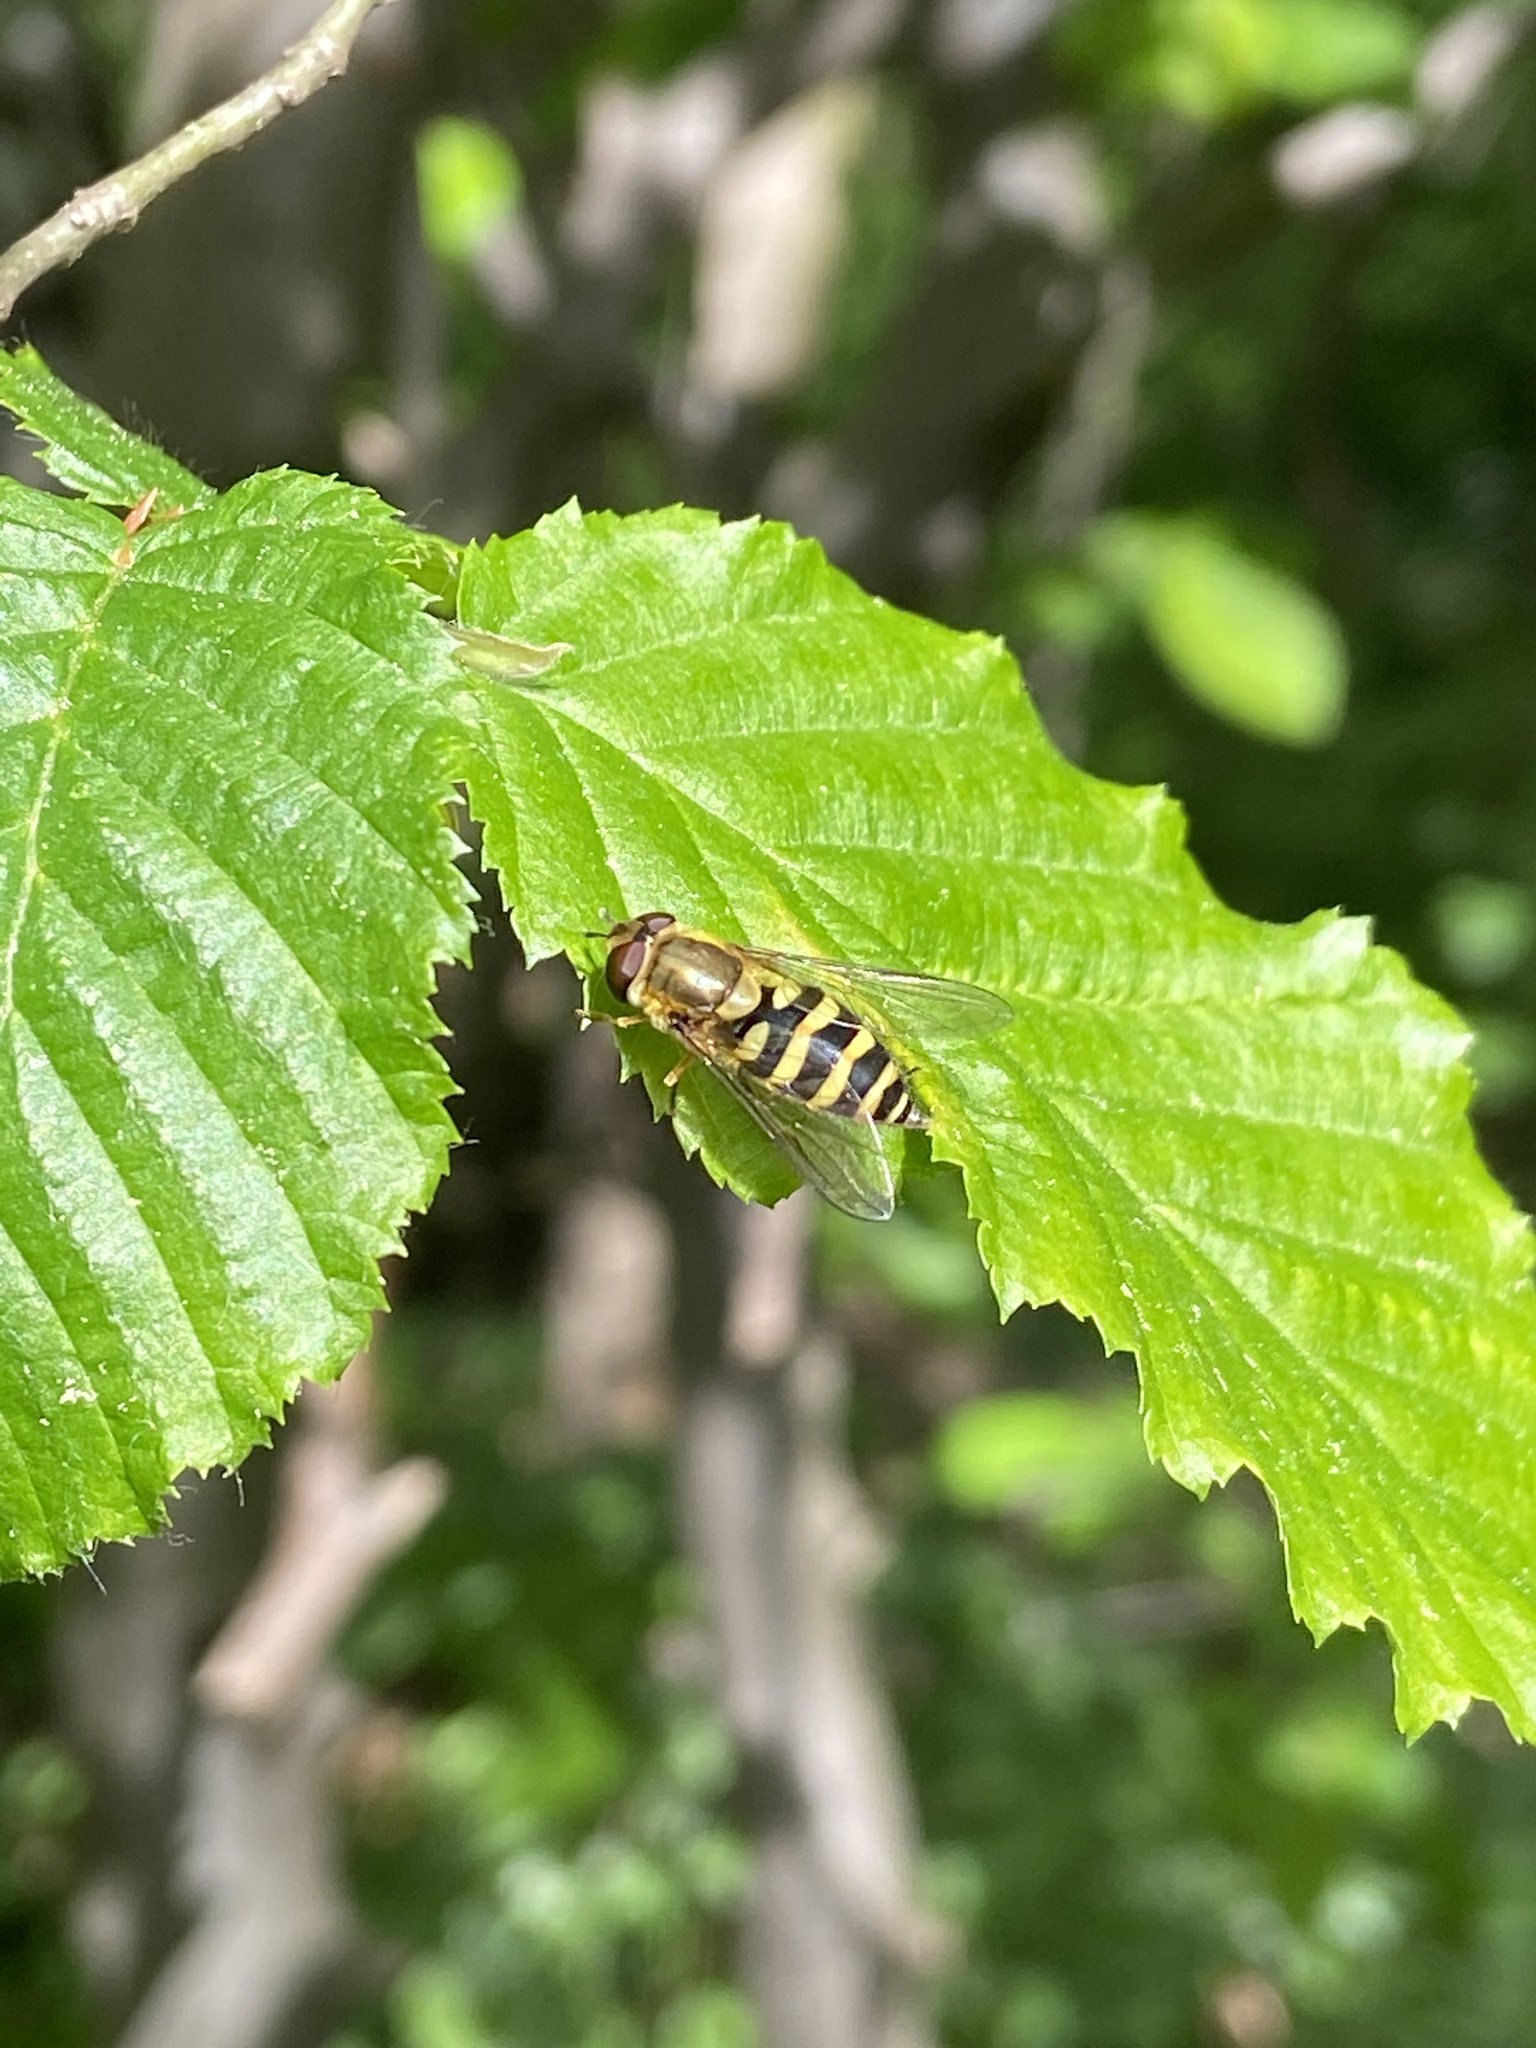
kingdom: Animalia
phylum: Arthropoda
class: Insecta
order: Diptera
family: Syrphidae
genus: Syrphus
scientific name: Syrphus
